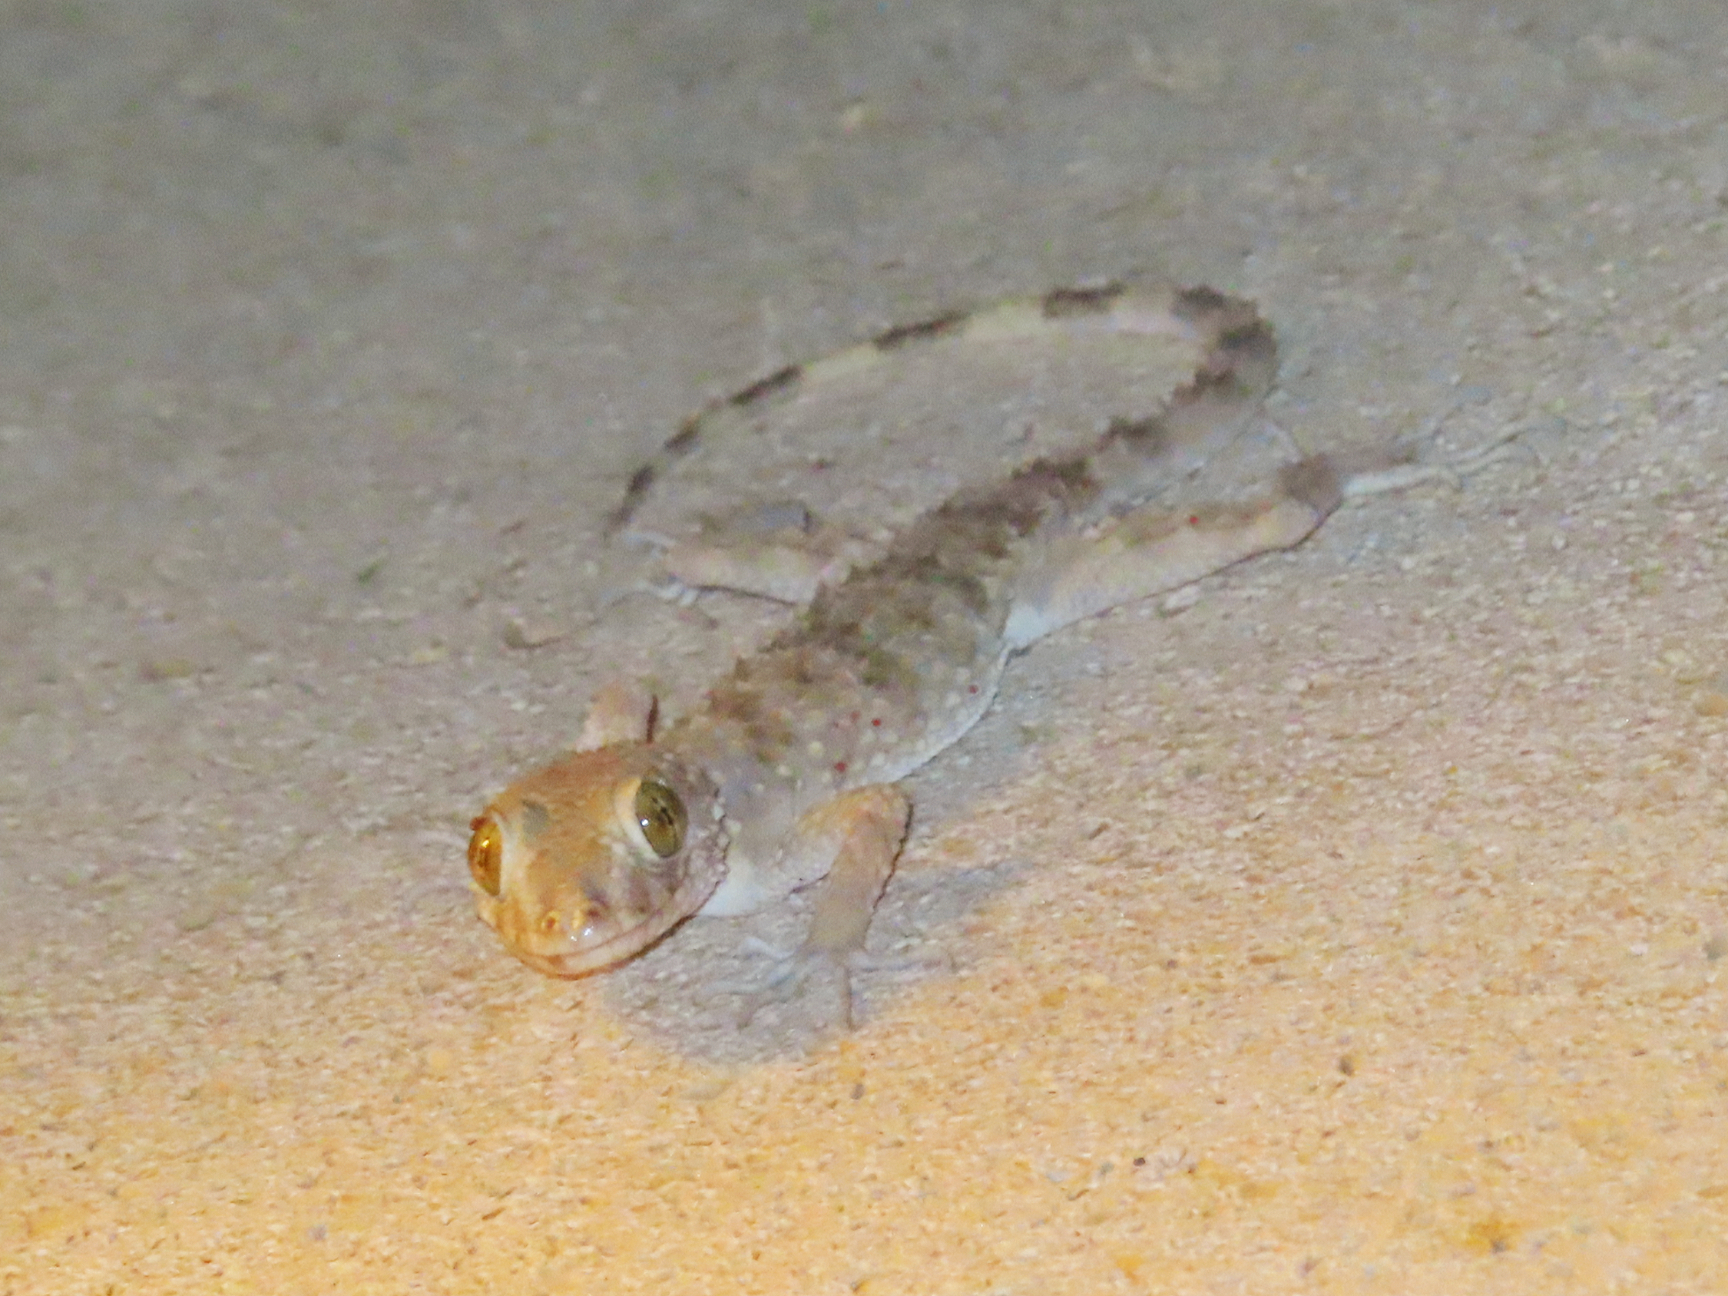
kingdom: Animalia
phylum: Chordata
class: Squamata
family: Gekkonidae
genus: Tenuidactylus
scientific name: Tenuidactylus caspius
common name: Caspian bent-toed gecko
